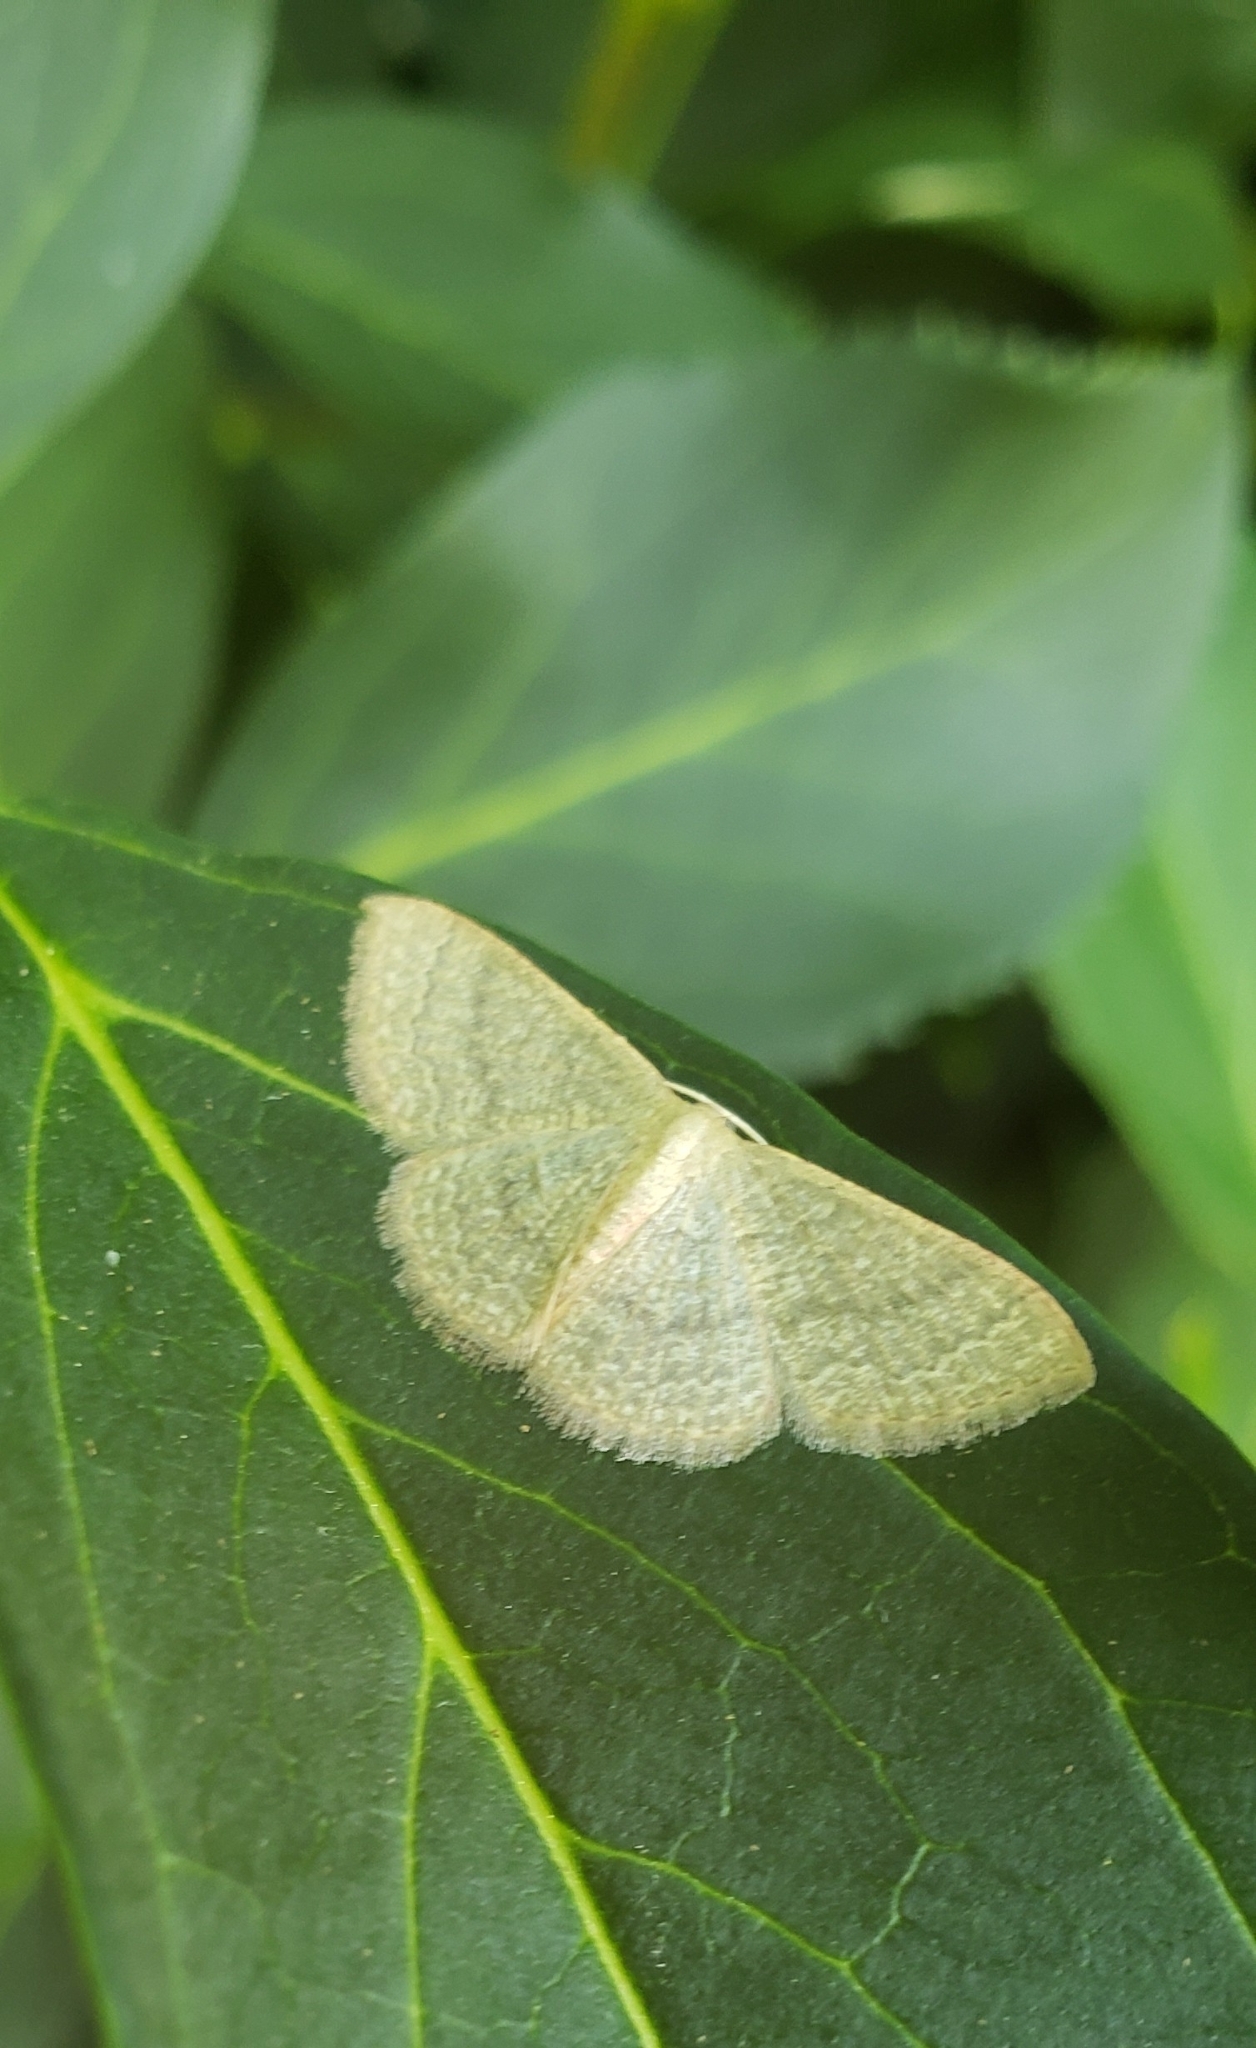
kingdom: Animalia
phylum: Arthropoda
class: Insecta
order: Lepidoptera
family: Geometridae
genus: Pleuroprucha
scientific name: Pleuroprucha insulsaria
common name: Common tan wave
